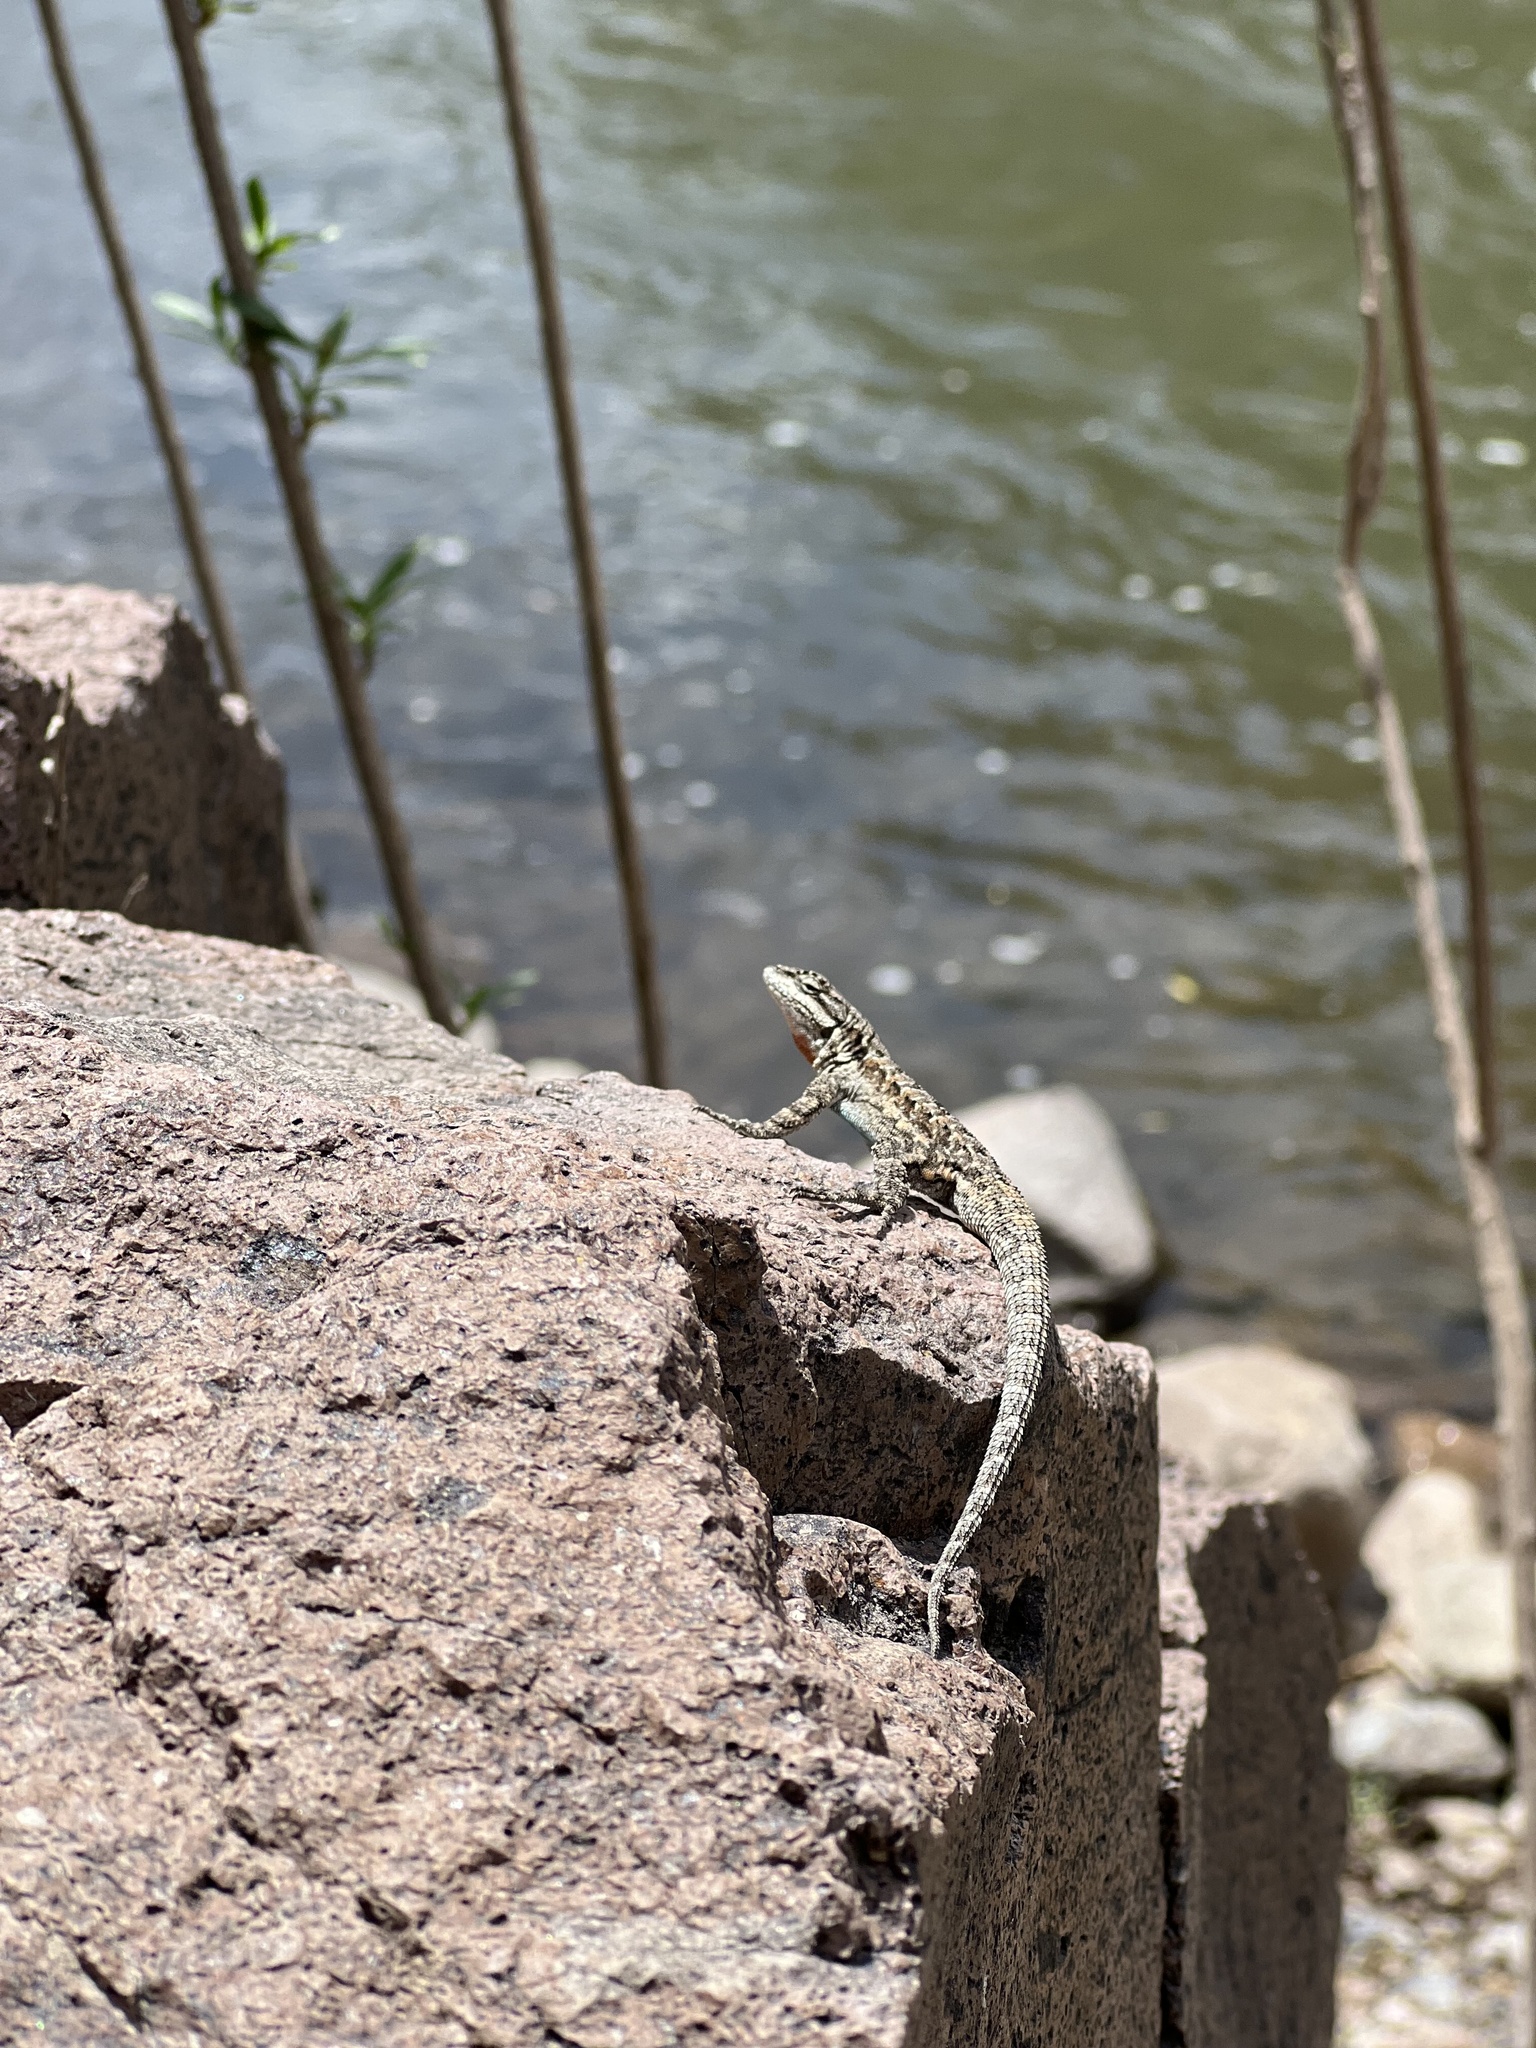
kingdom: Animalia
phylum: Chordata
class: Squamata
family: Phrynosomatidae
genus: Urosaurus
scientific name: Urosaurus ornatus
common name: Ornate tree lizard
